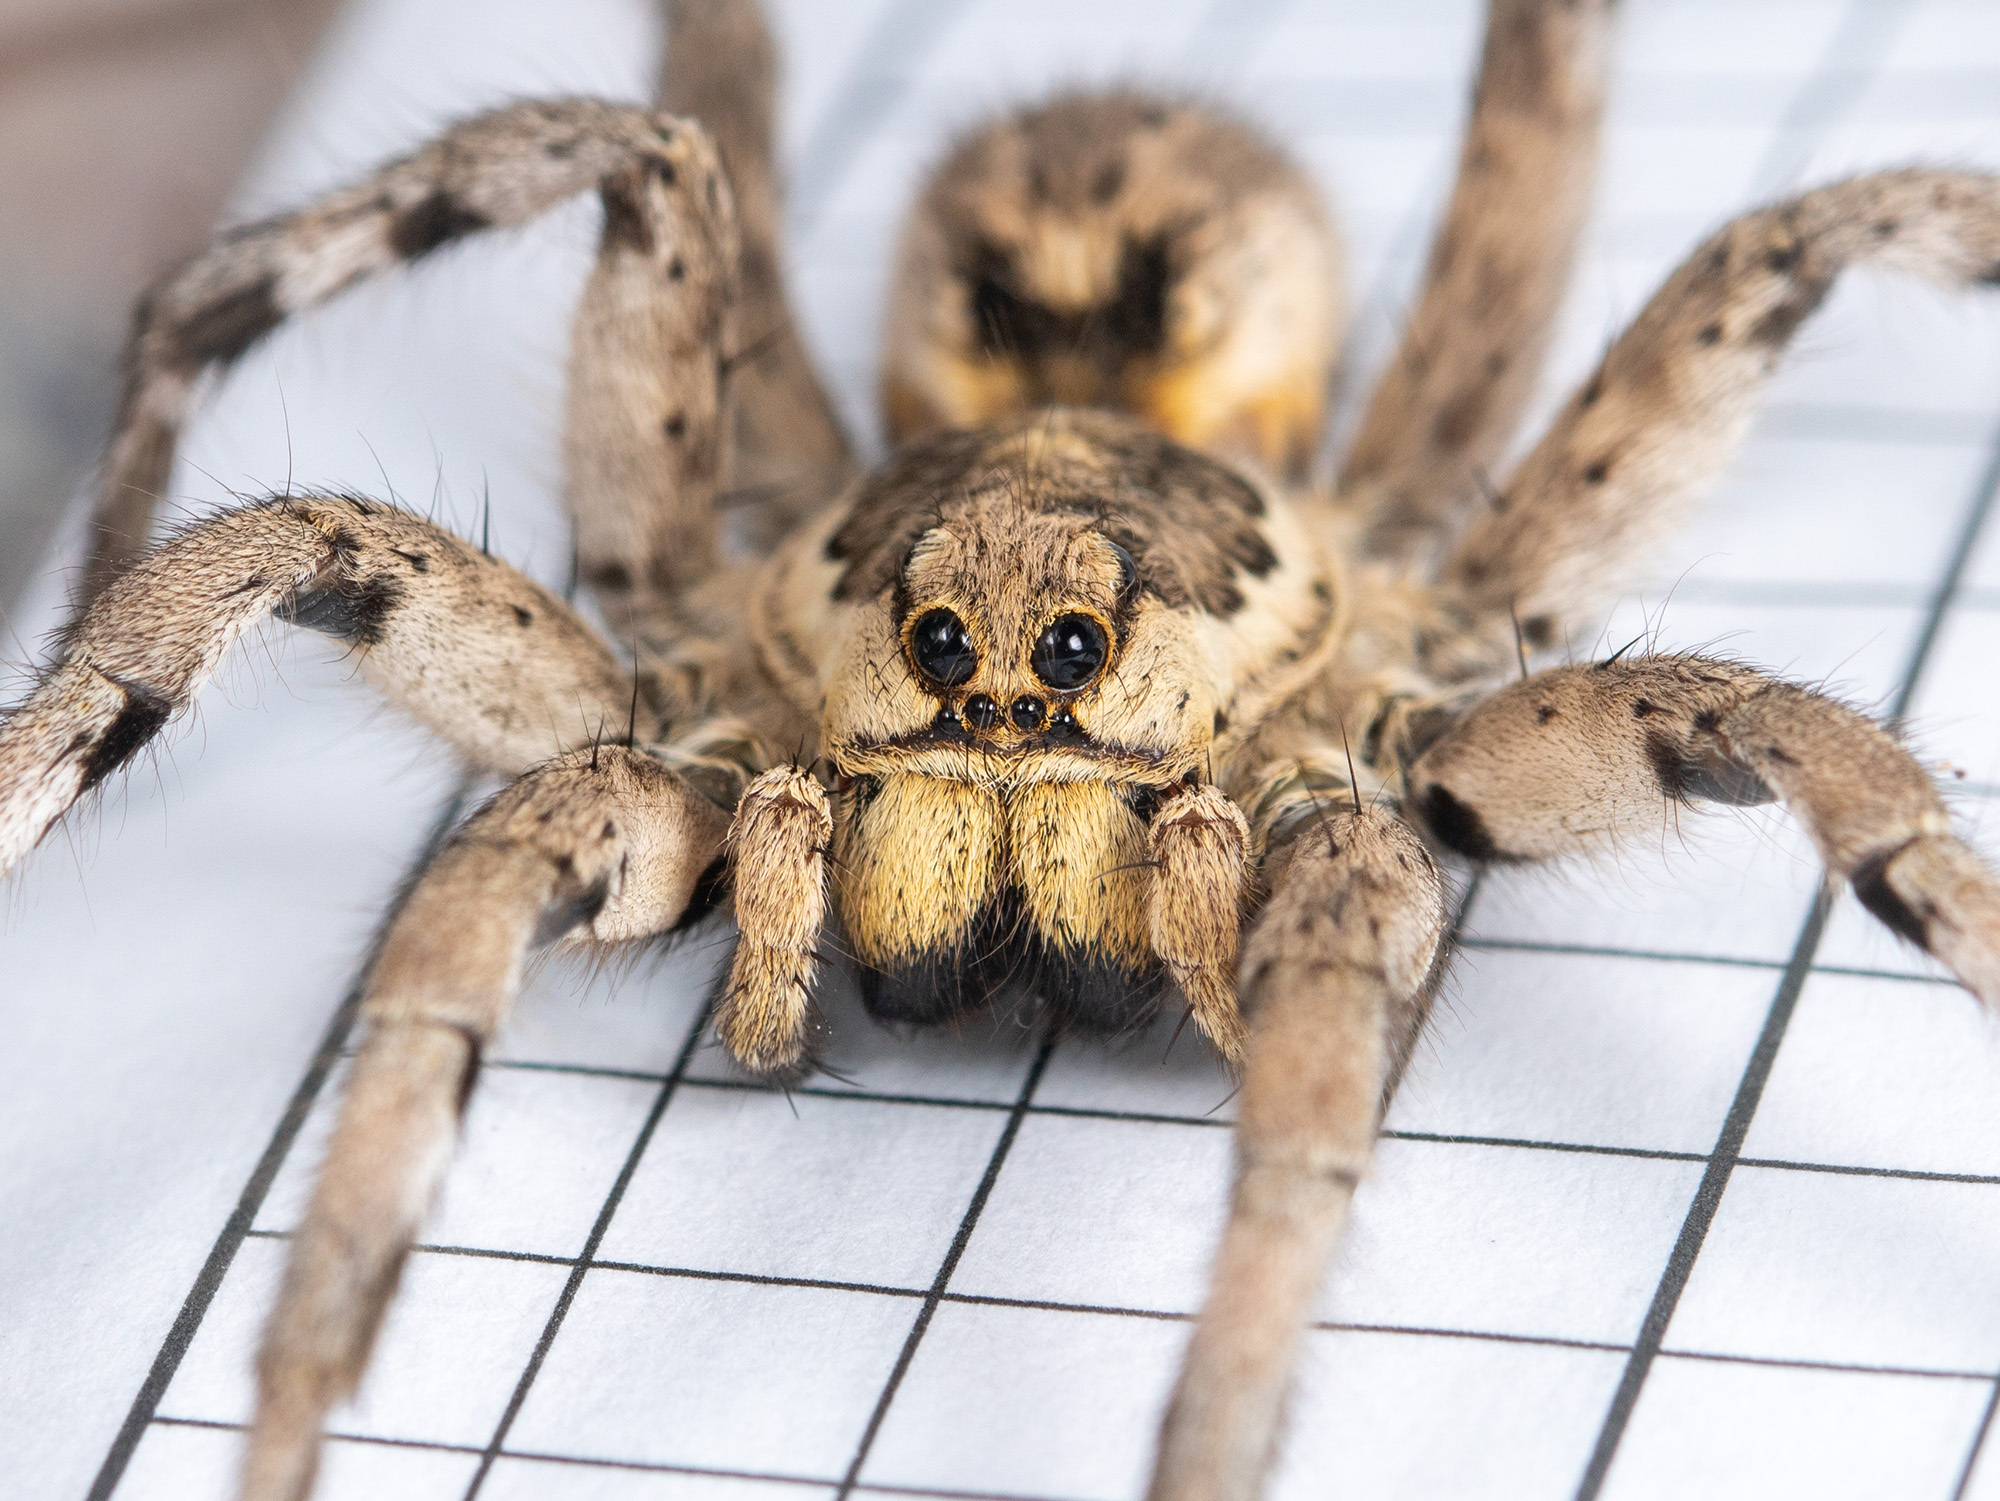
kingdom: Animalia
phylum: Arthropoda
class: Arachnida
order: Araneae
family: Lycosidae
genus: Lycosa
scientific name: Lycosa praegrandis
